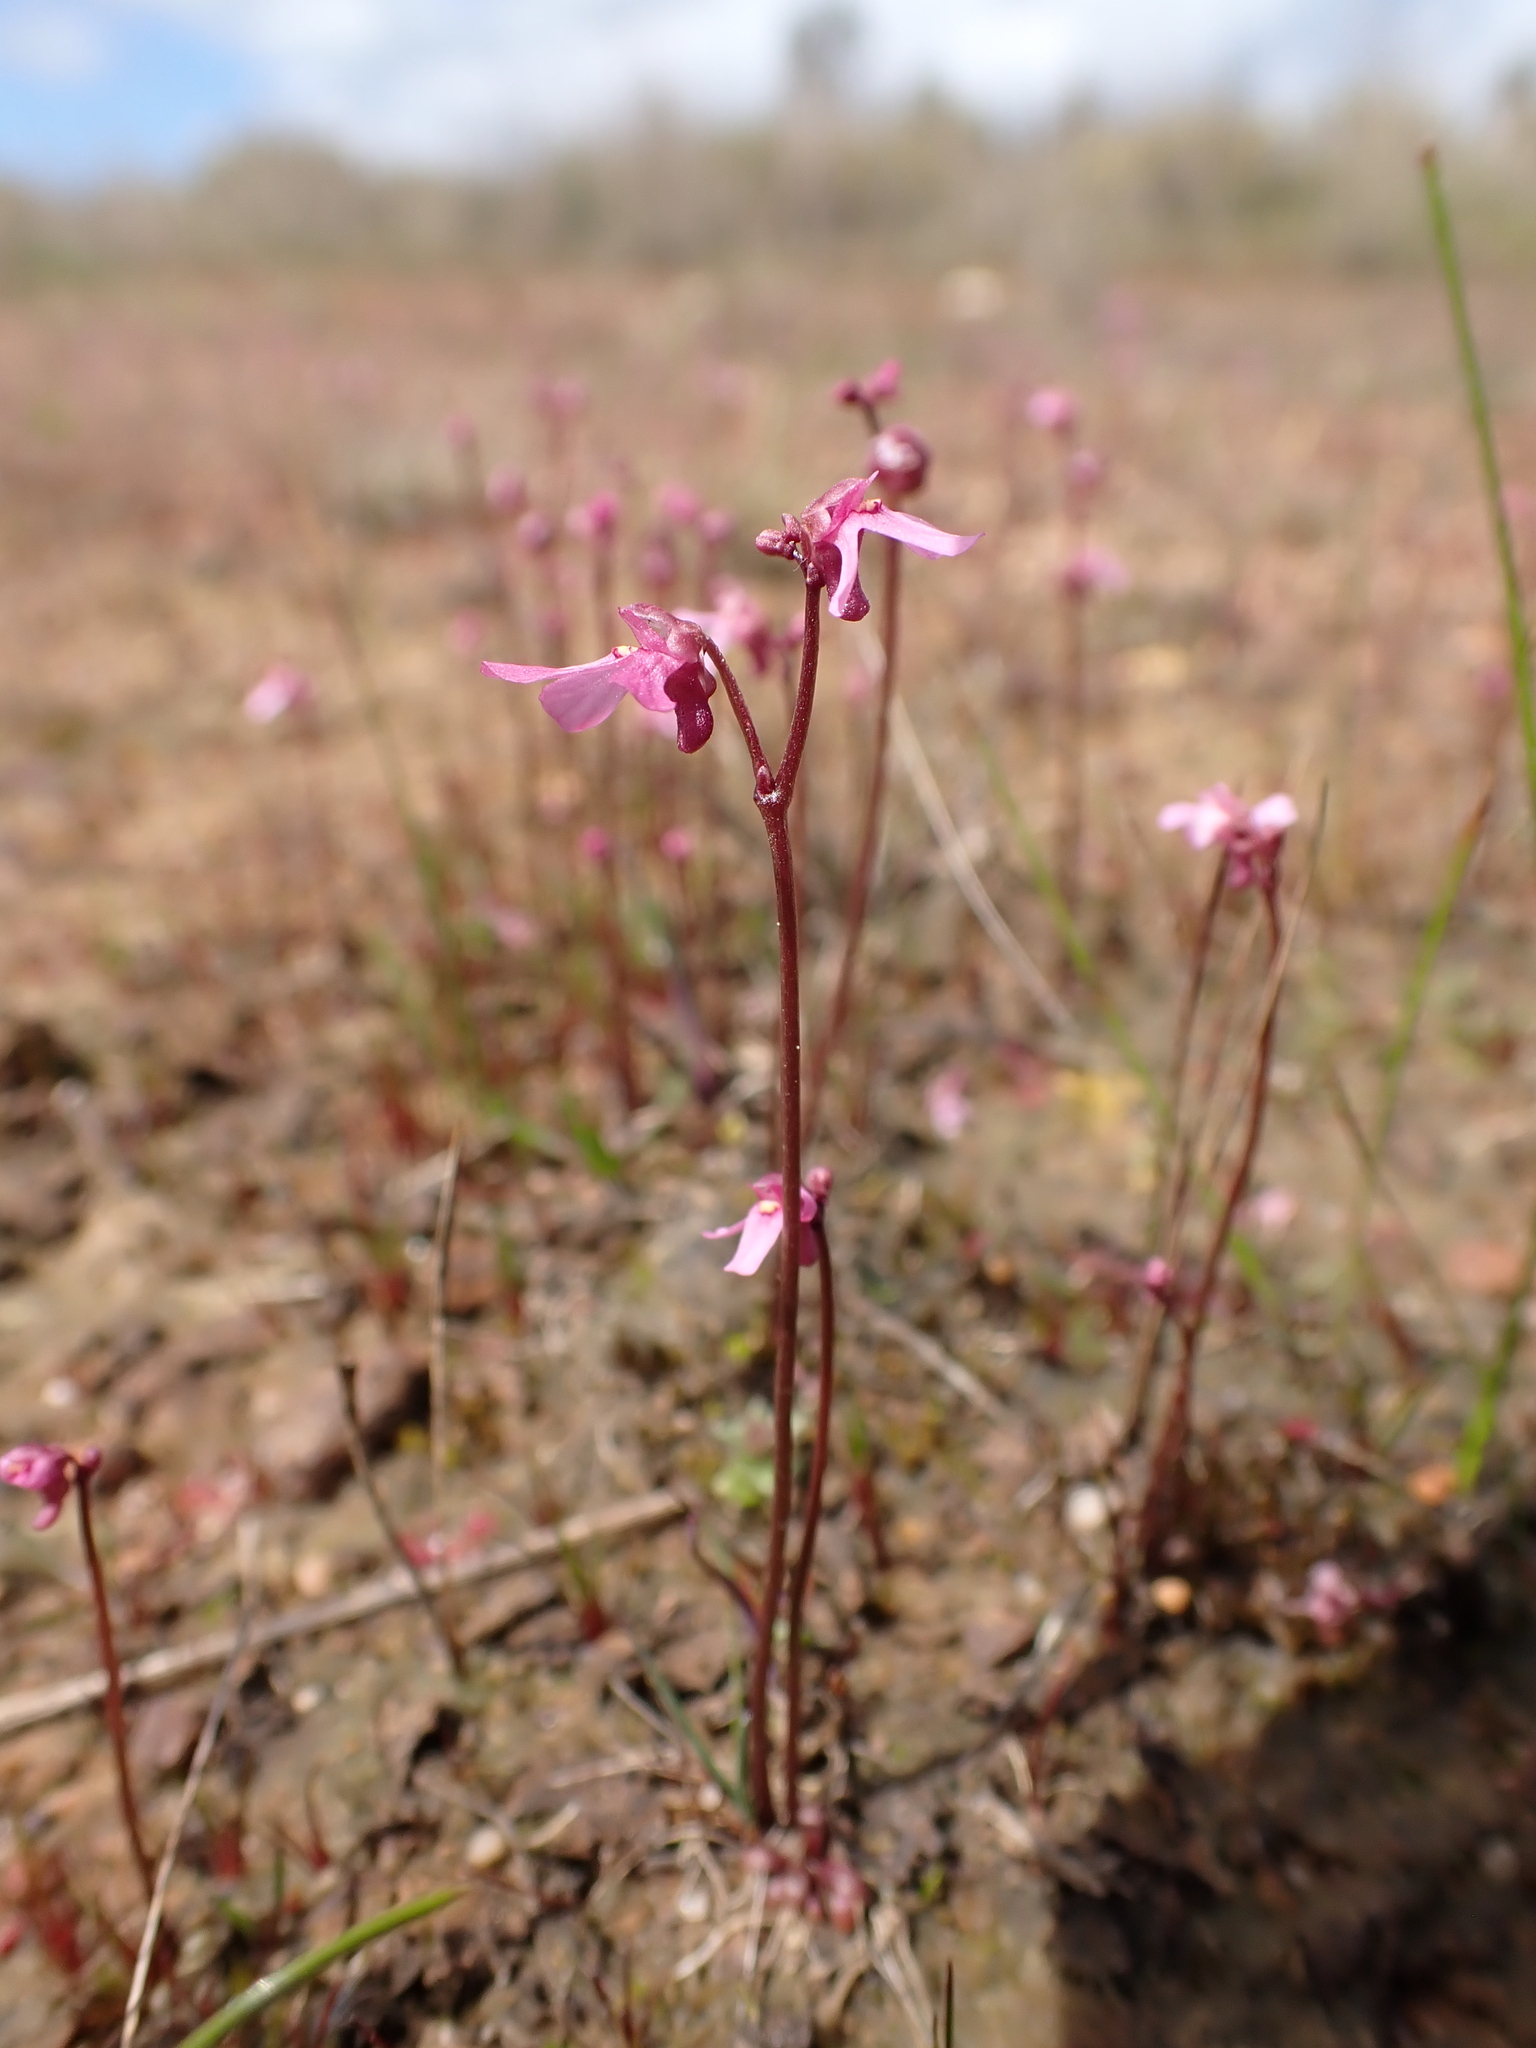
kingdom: Plantae
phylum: Tracheophyta
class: Magnoliopsida
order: Lamiales
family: Lentibulariaceae
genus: Utricularia
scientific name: Utricularia tenella
